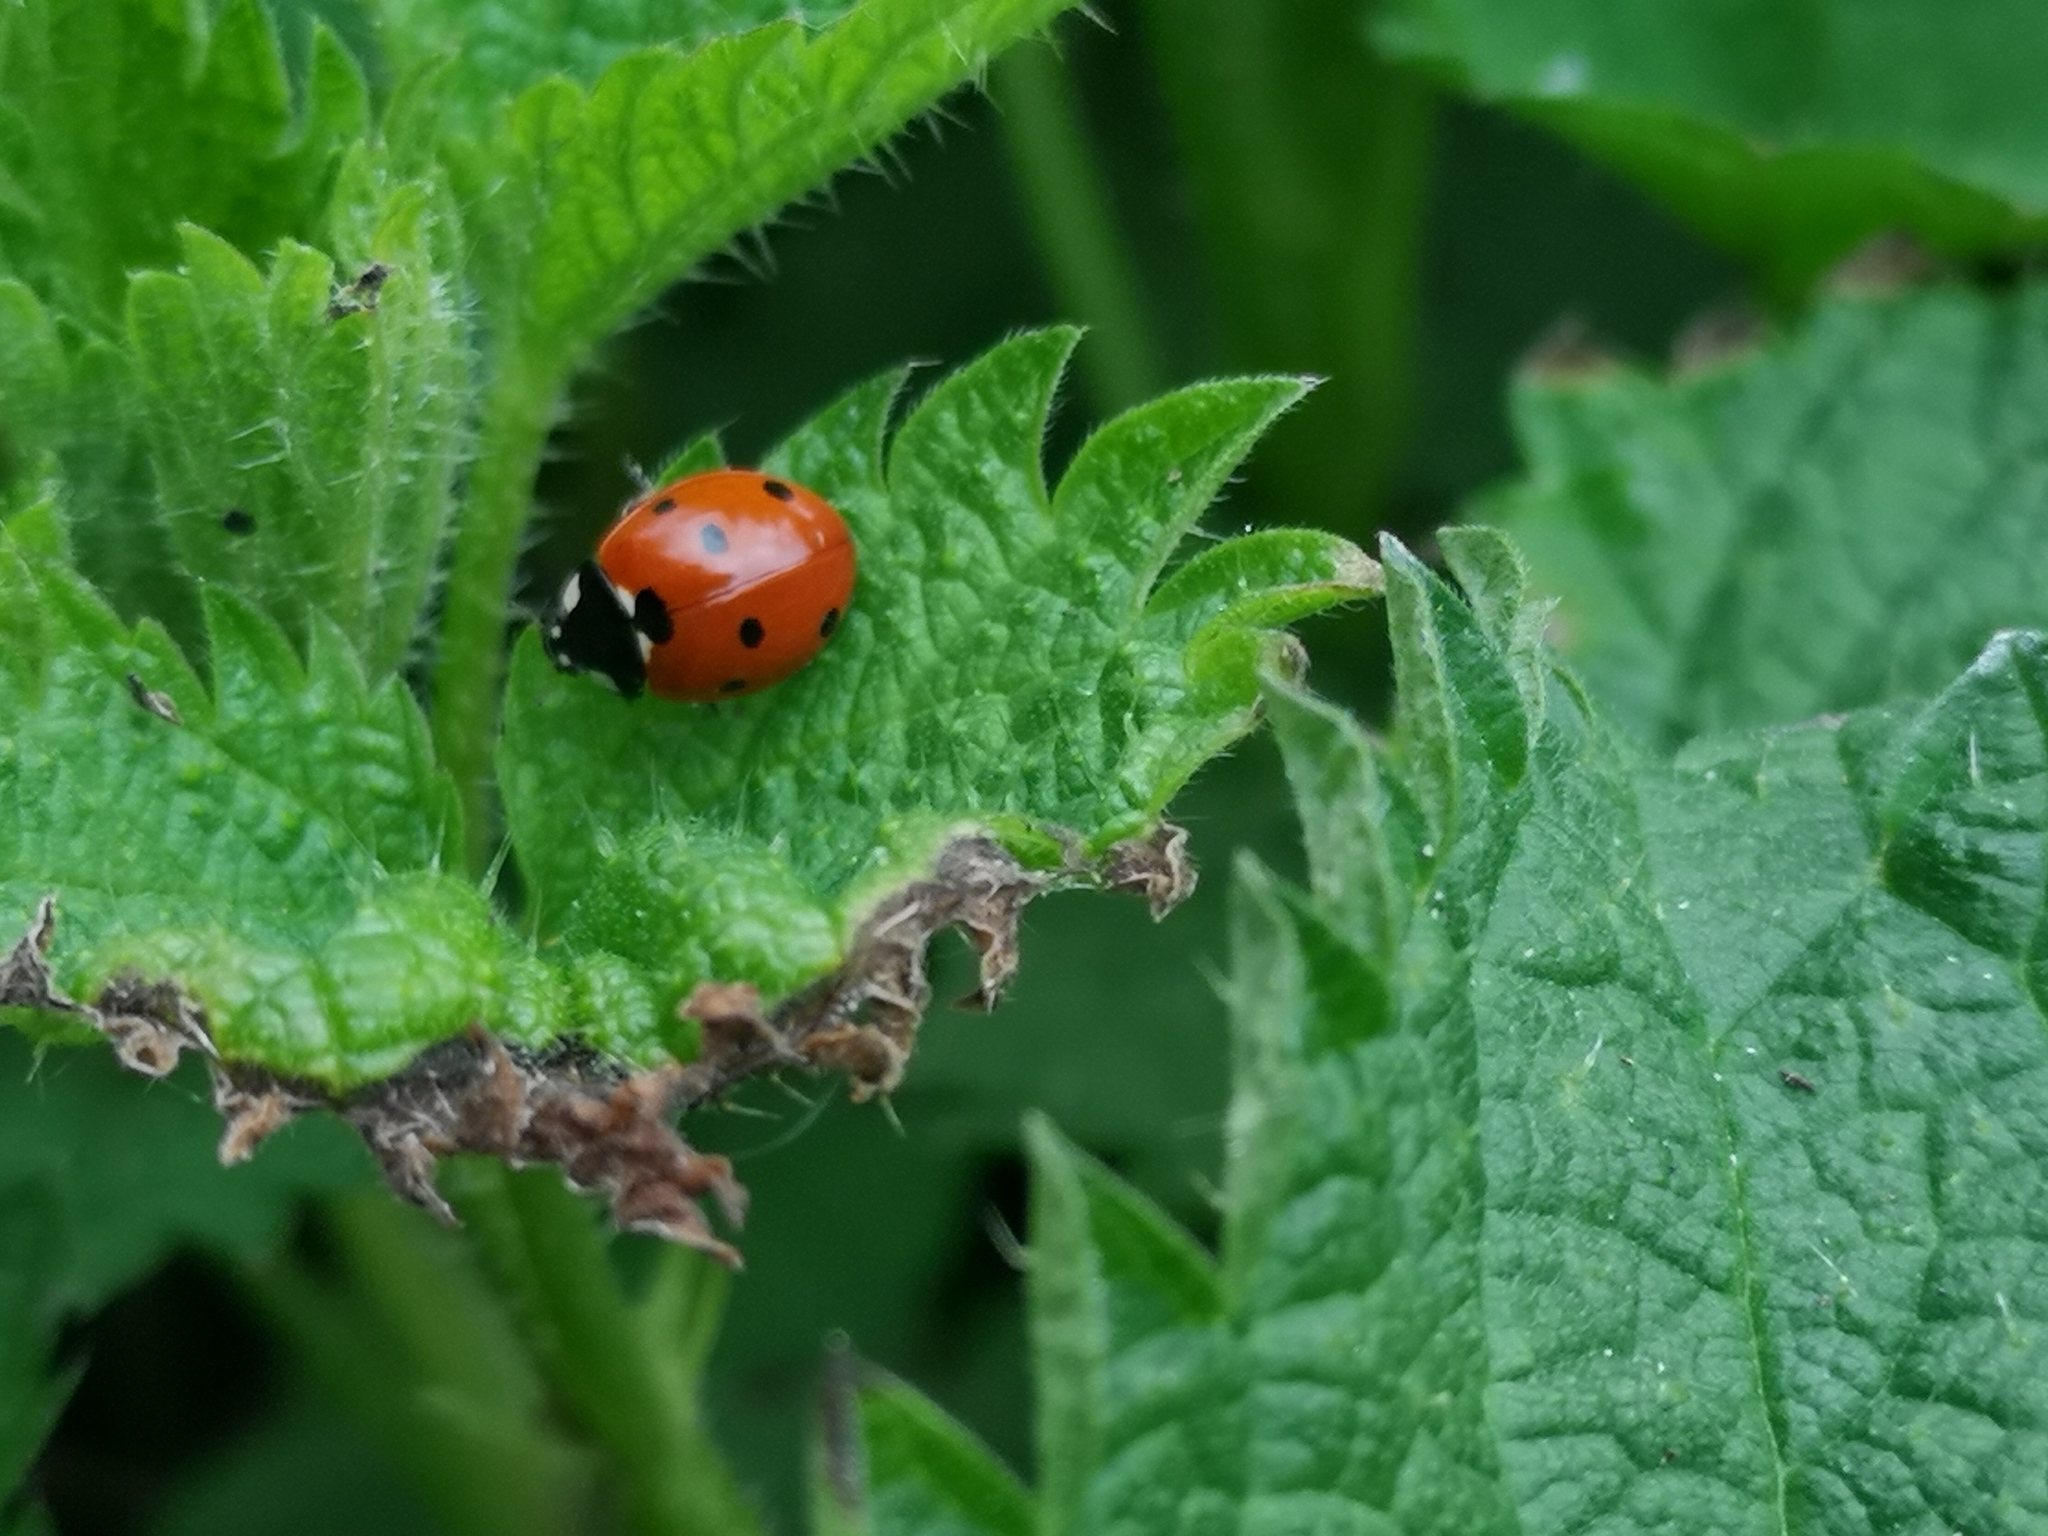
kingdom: Animalia
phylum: Arthropoda
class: Insecta
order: Coleoptera
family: Coccinellidae
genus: Coccinella
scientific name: Coccinella septempunctata
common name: Sevenspotted lady beetle
